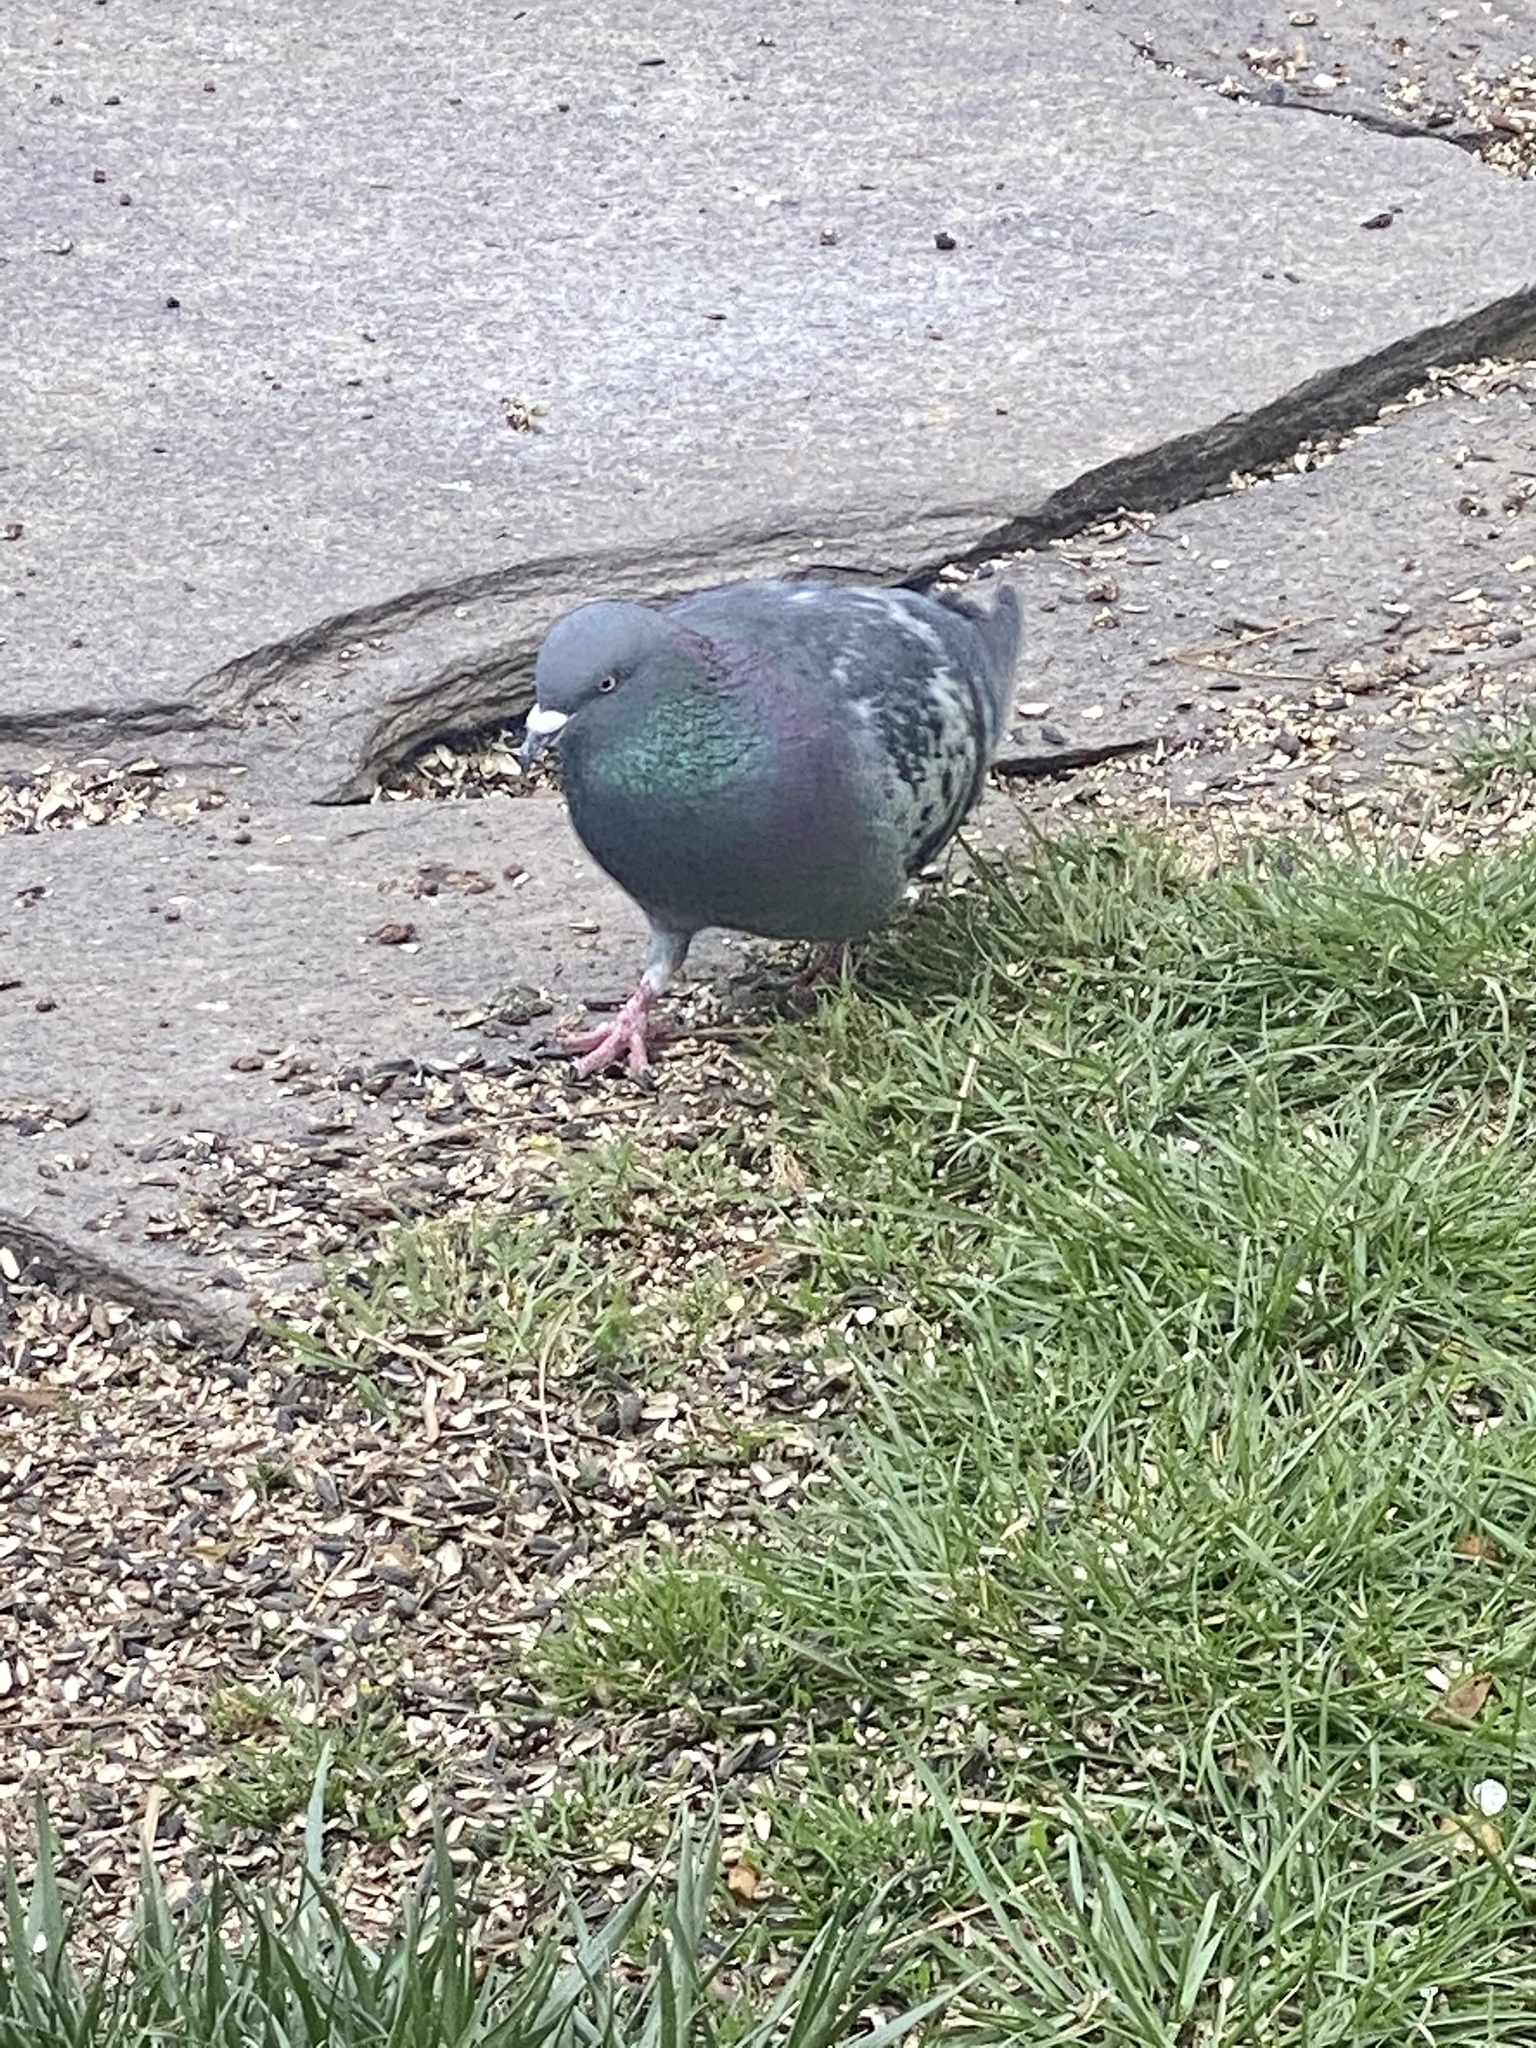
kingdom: Animalia
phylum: Chordata
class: Aves
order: Columbiformes
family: Columbidae
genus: Columba
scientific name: Columba livia
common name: Rock pigeon
